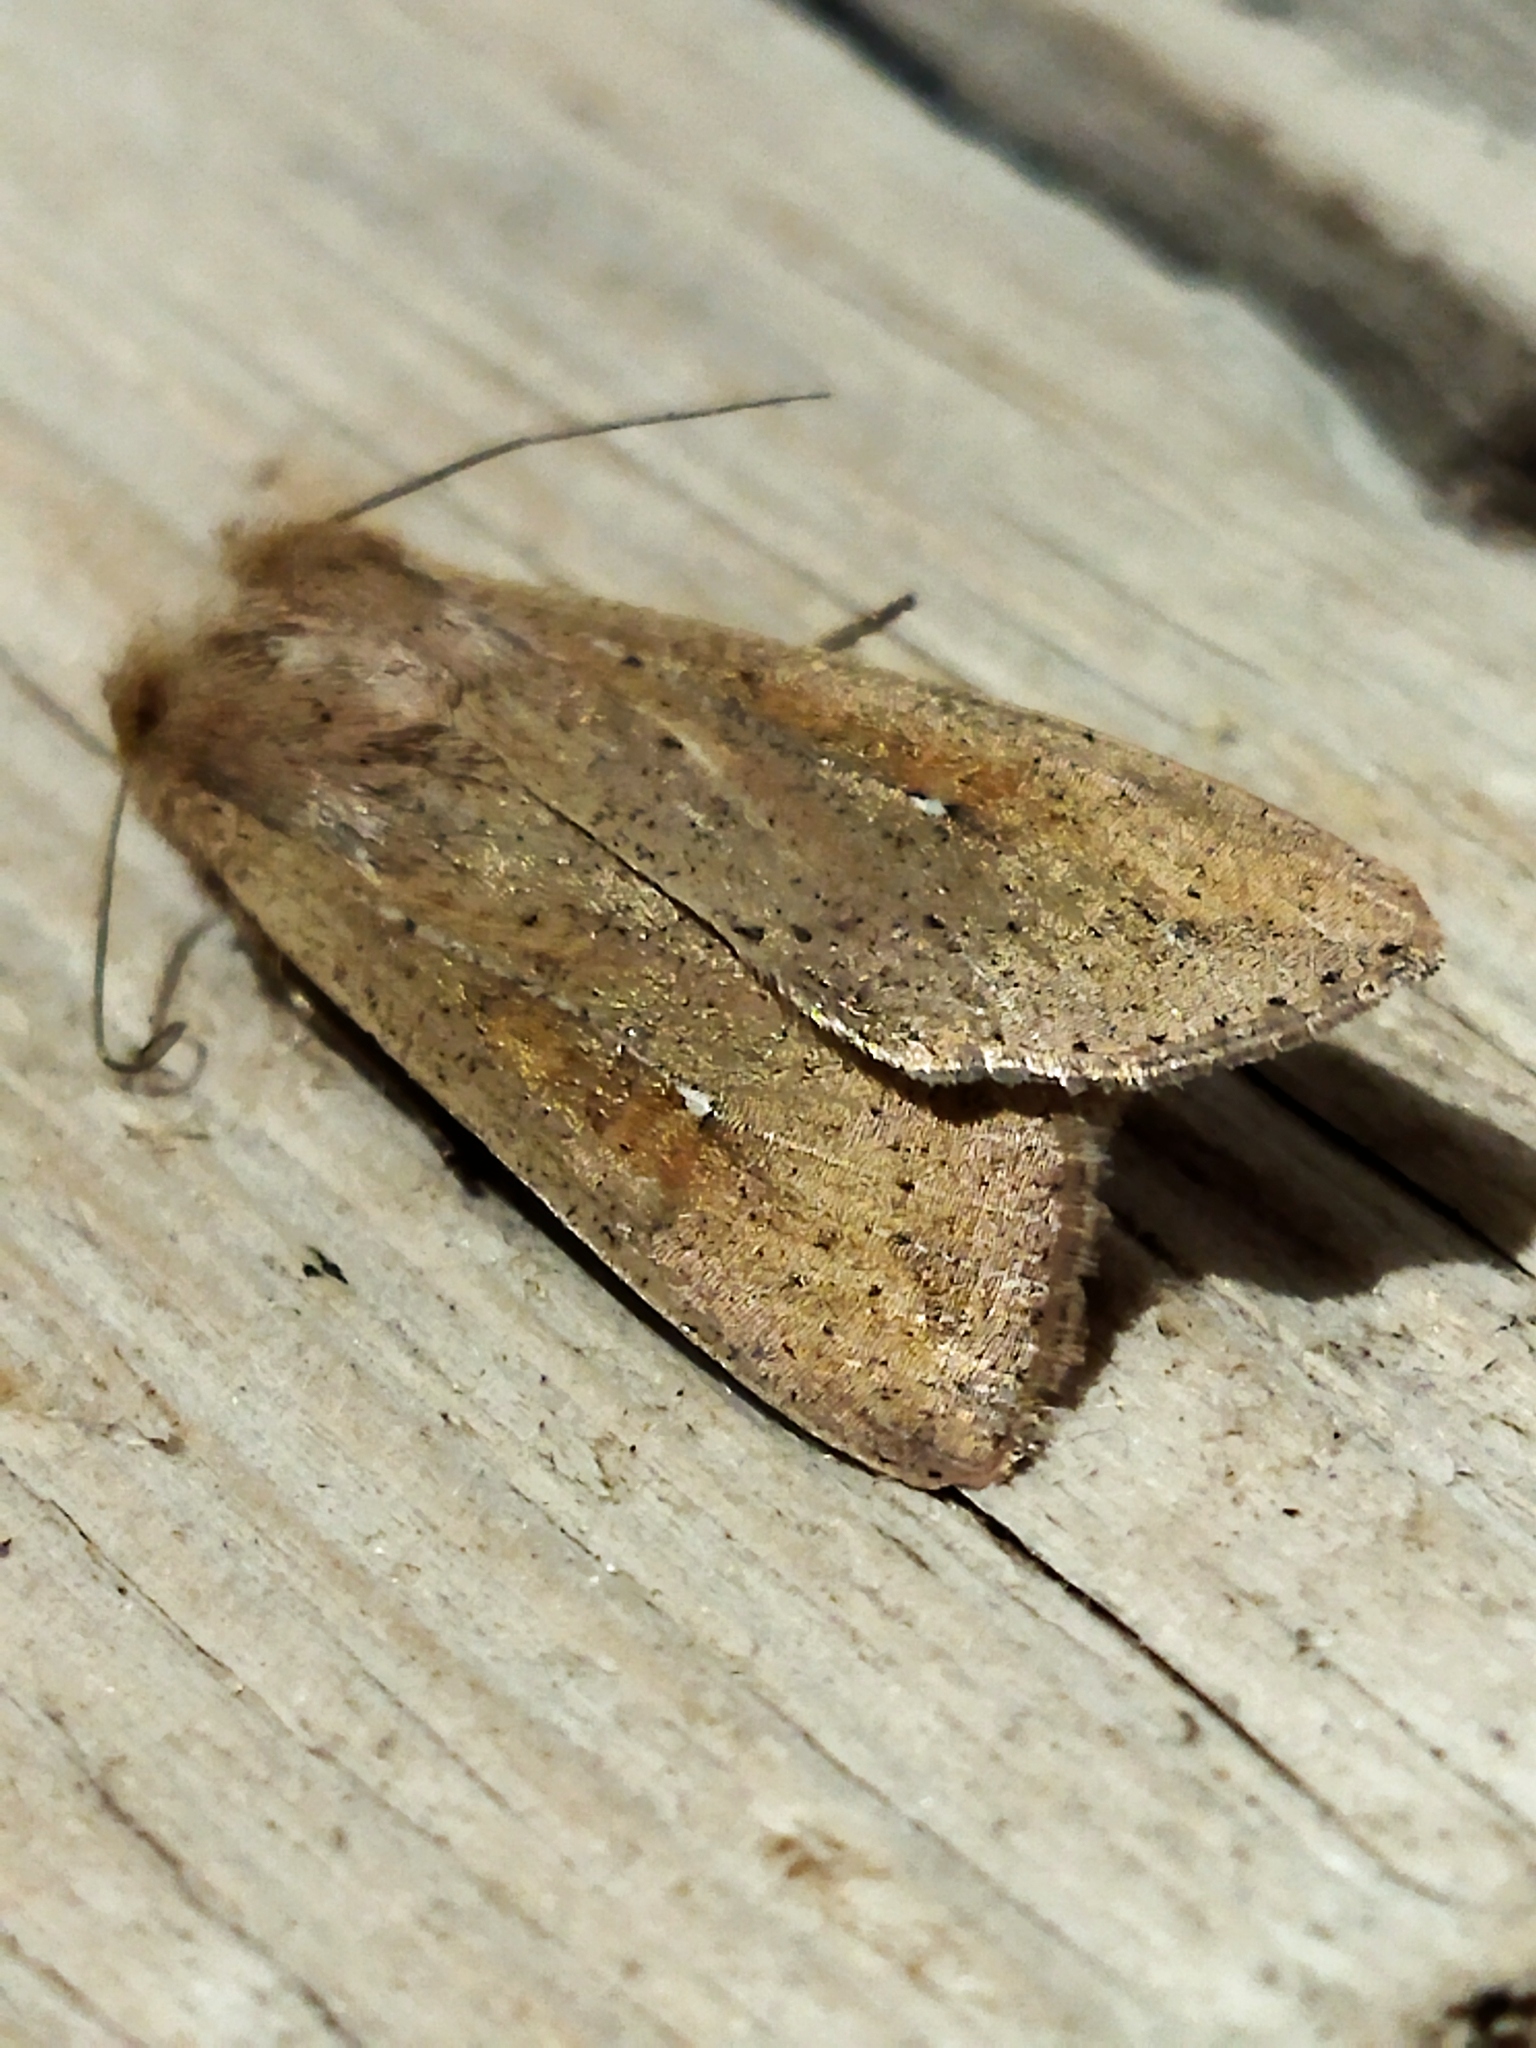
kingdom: Animalia
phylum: Arthropoda
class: Insecta
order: Lepidoptera
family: Noctuidae
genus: Mythimna
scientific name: Mythimna unipuncta
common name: White-speck
